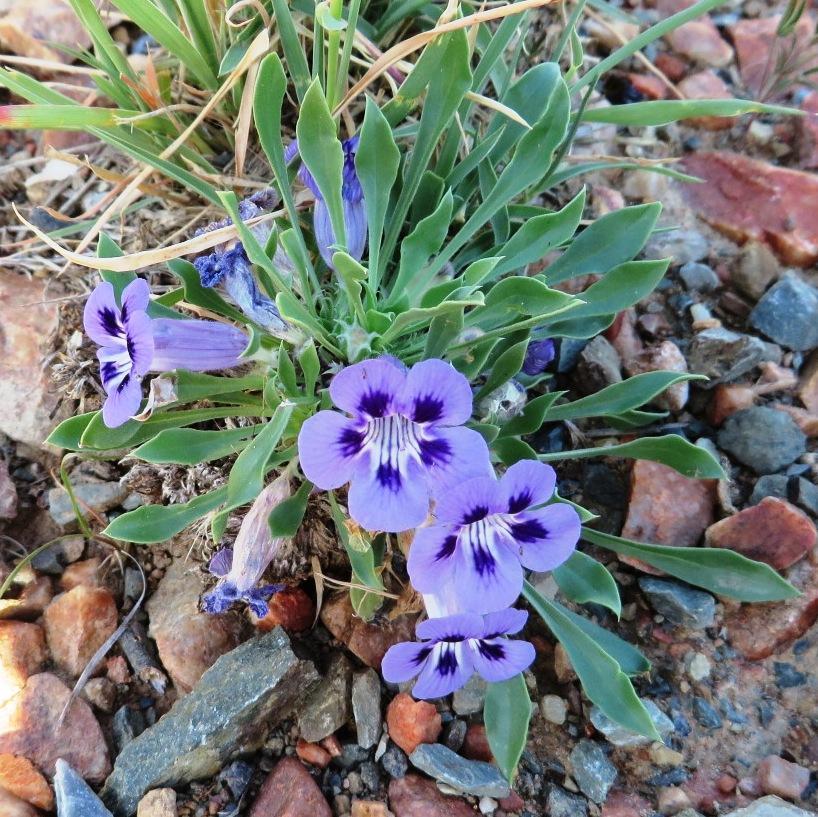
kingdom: Plantae
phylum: Tracheophyta
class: Magnoliopsida
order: Lamiales
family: Scrophulariaceae
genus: Aptosimum
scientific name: Aptosimum indivisum
